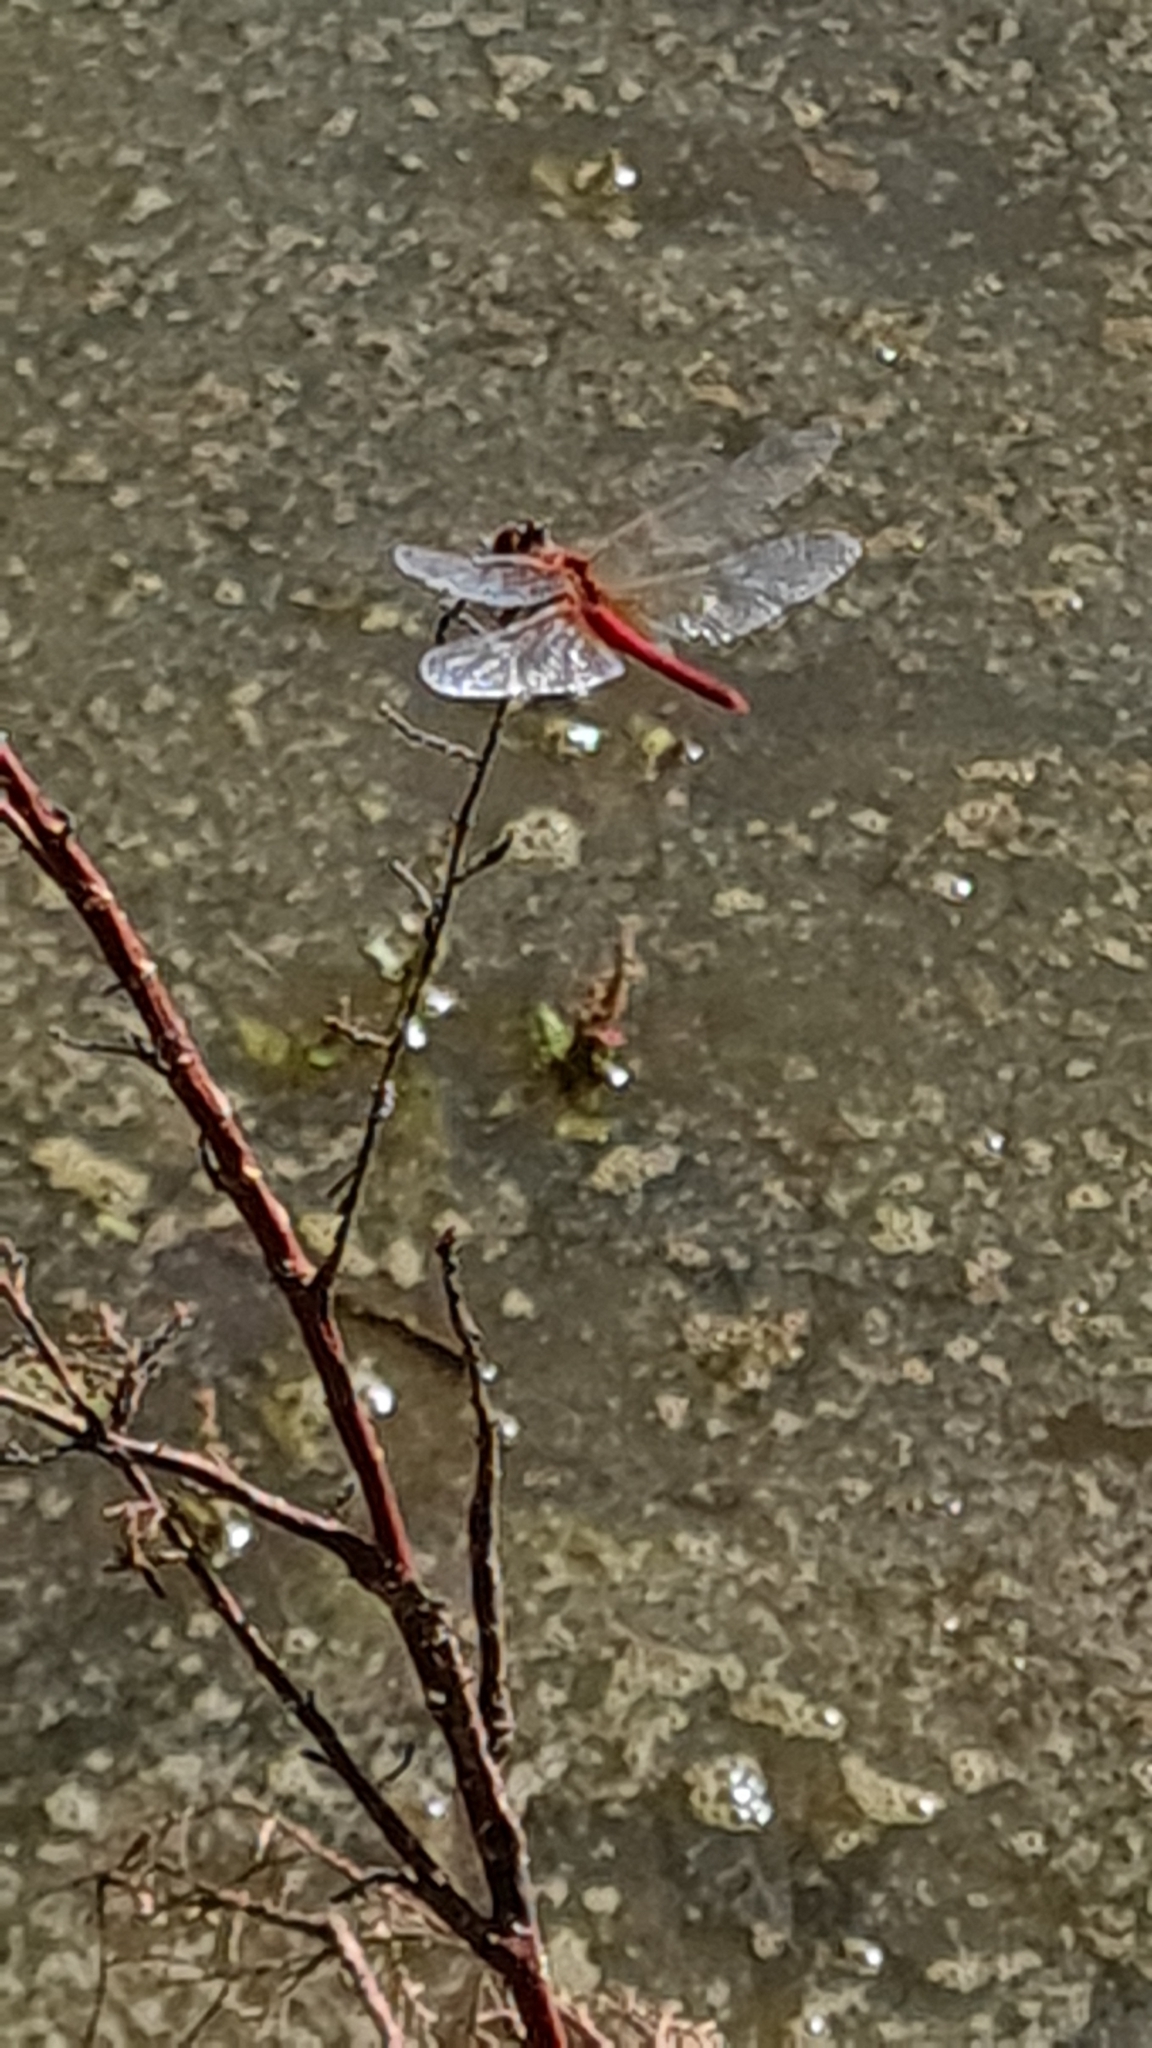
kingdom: Animalia
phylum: Arthropoda
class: Insecta
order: Odonata
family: Libellulidae
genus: Sympetrum
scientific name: Sympetrum fonscolombii
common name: Red-veined darter
